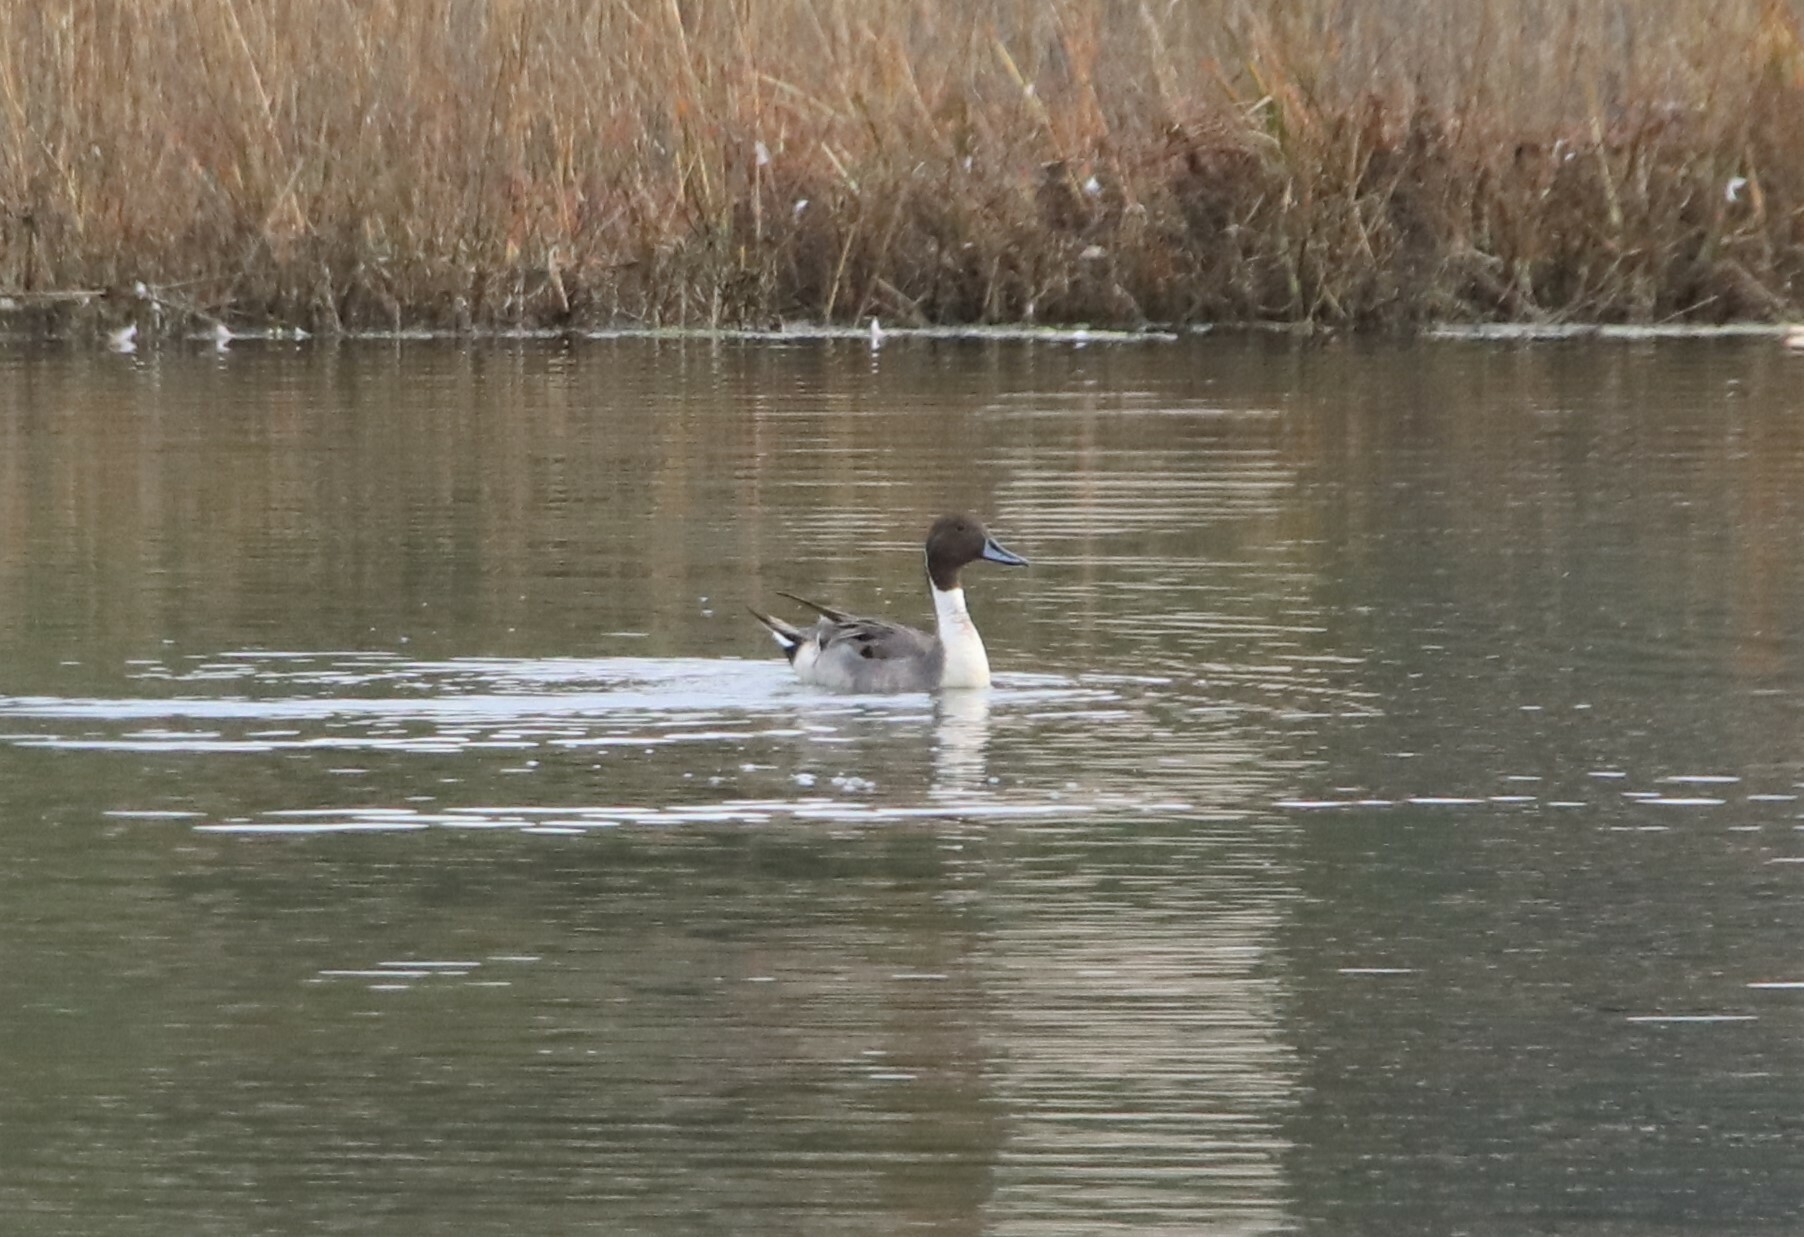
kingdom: Animalia
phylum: Chordata
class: Aves
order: Anseriformes
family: Anatidae
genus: Anas
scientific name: Anas acuta
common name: Northern pintail
